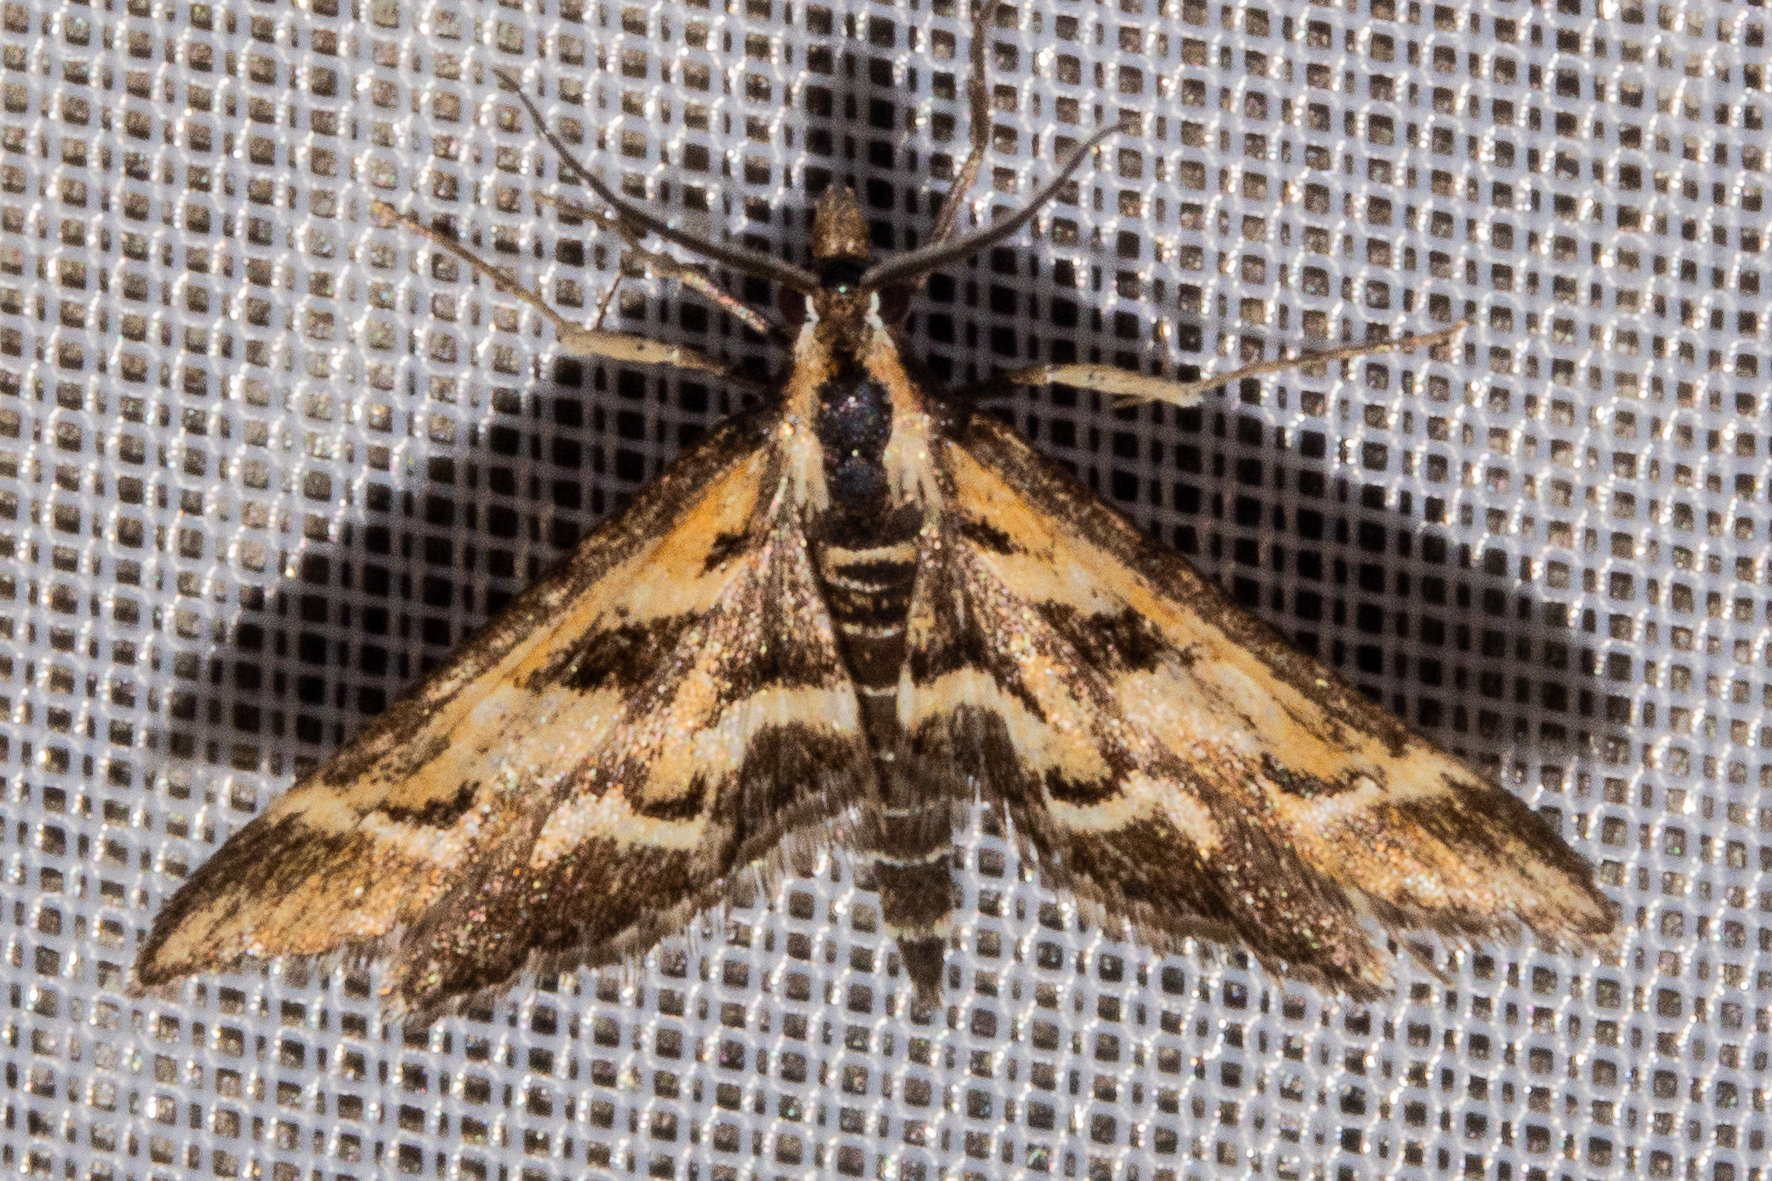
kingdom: Animalia
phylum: Arthropoda
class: Insecta
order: Lepidoptera
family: Crambidae
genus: Diasemia
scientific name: Diasemia grammalis
